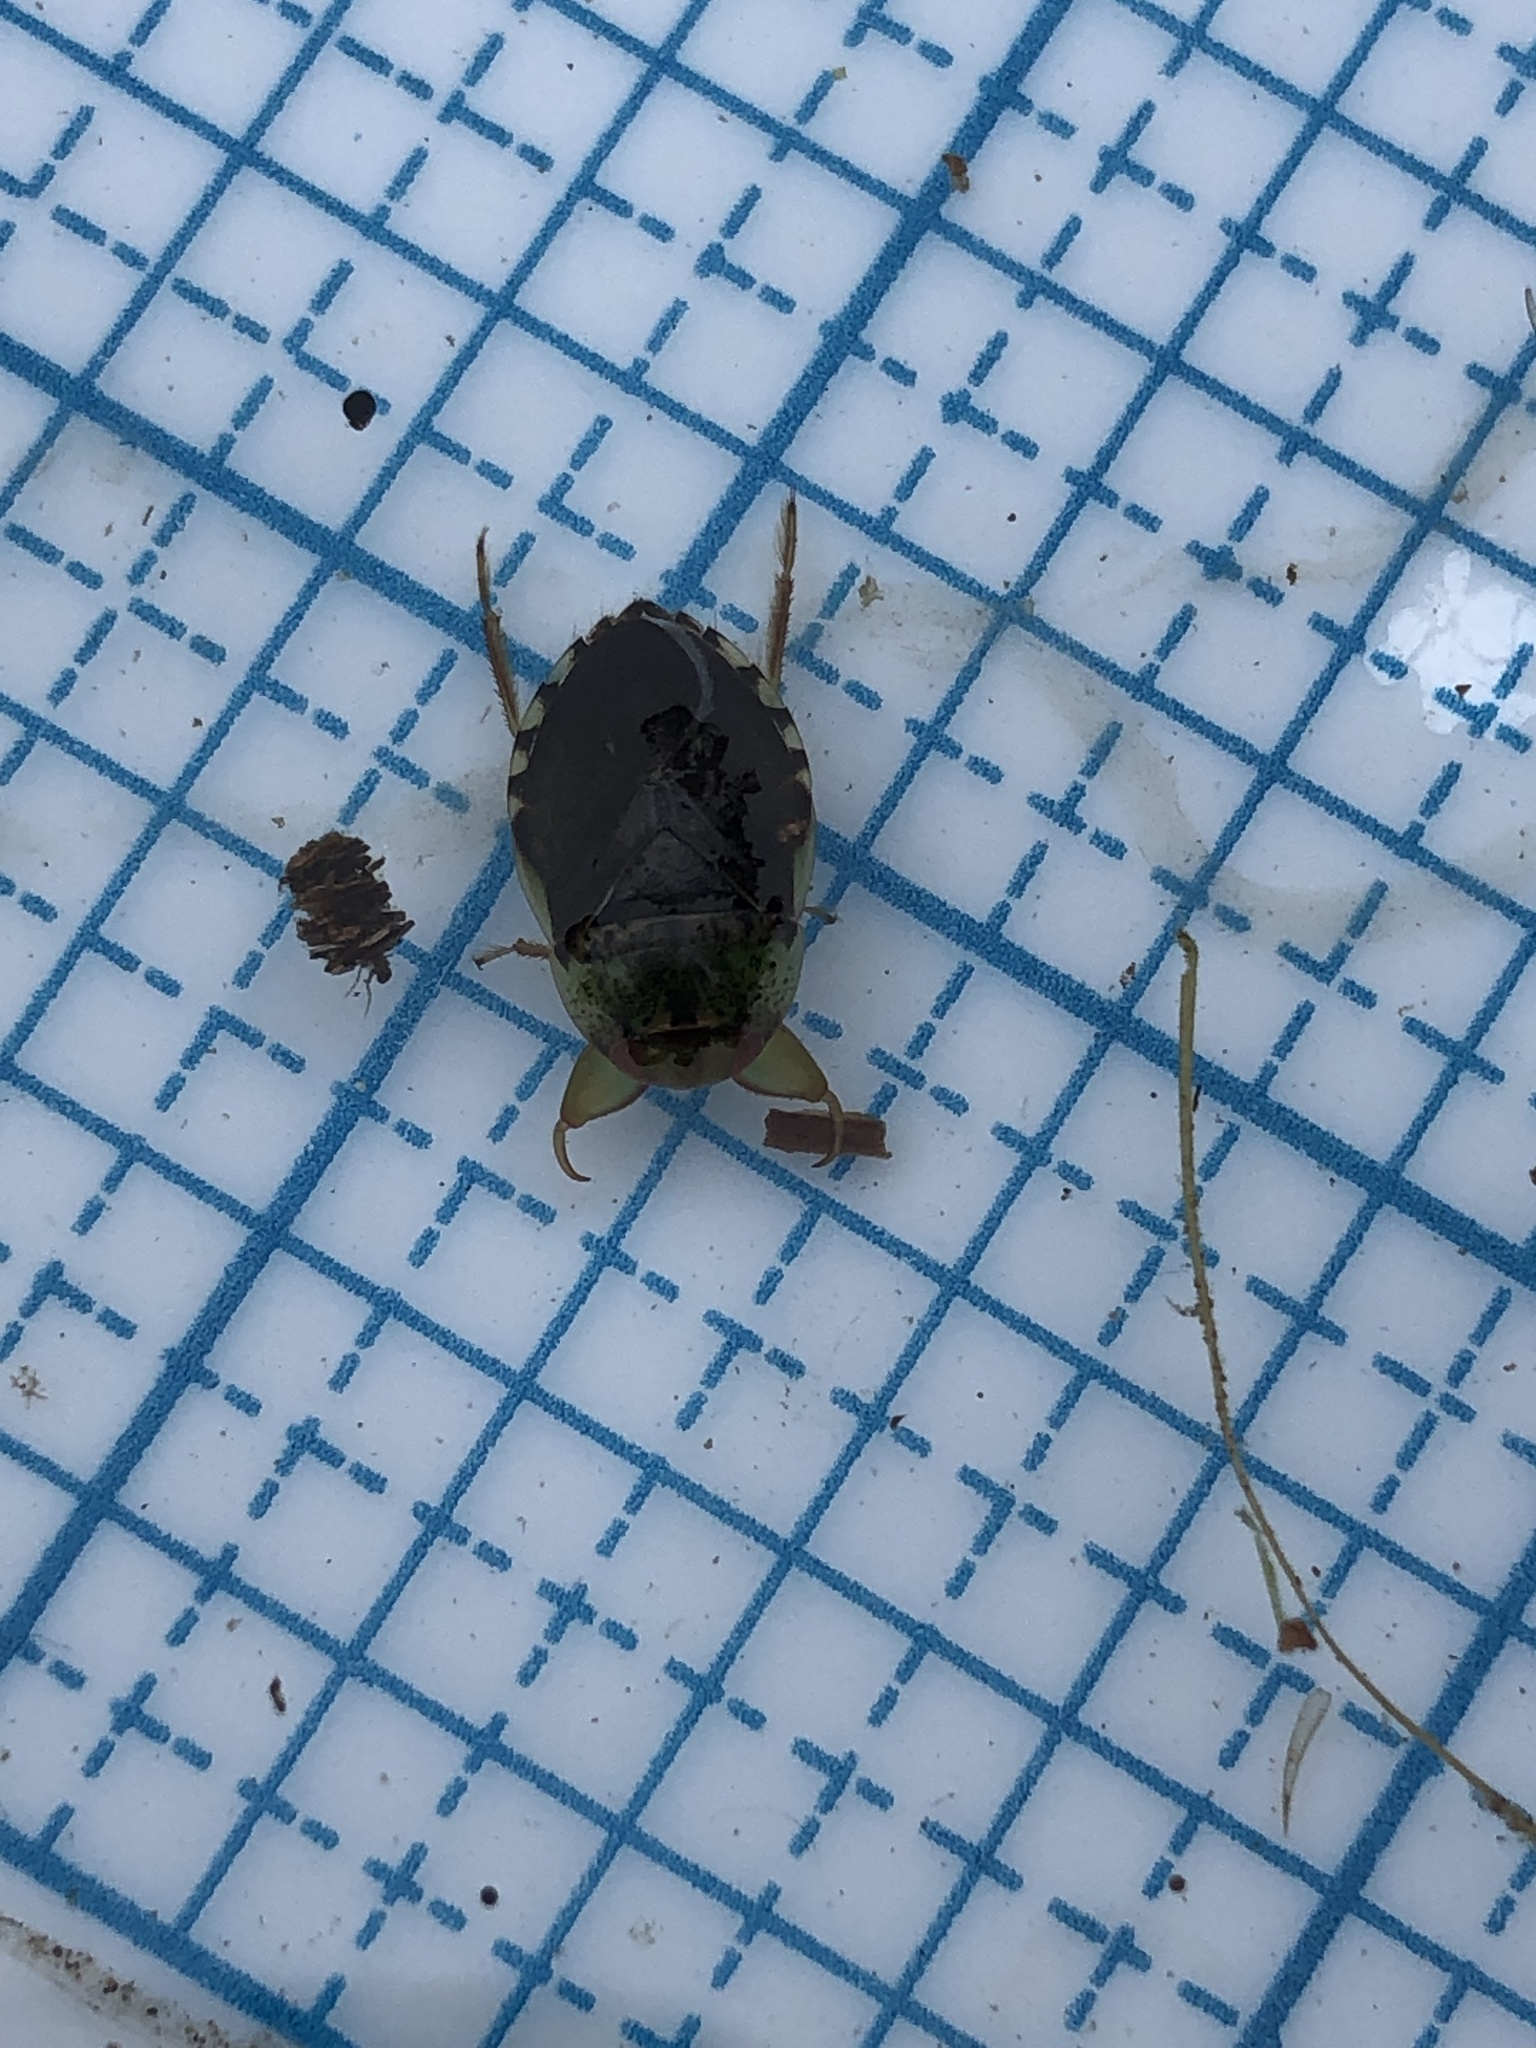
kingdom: Animalia
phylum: Arthropoda
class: Insecta
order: Hemiptera
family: Naucoridae
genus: Pelocoris
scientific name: Pelocoris femoratus
